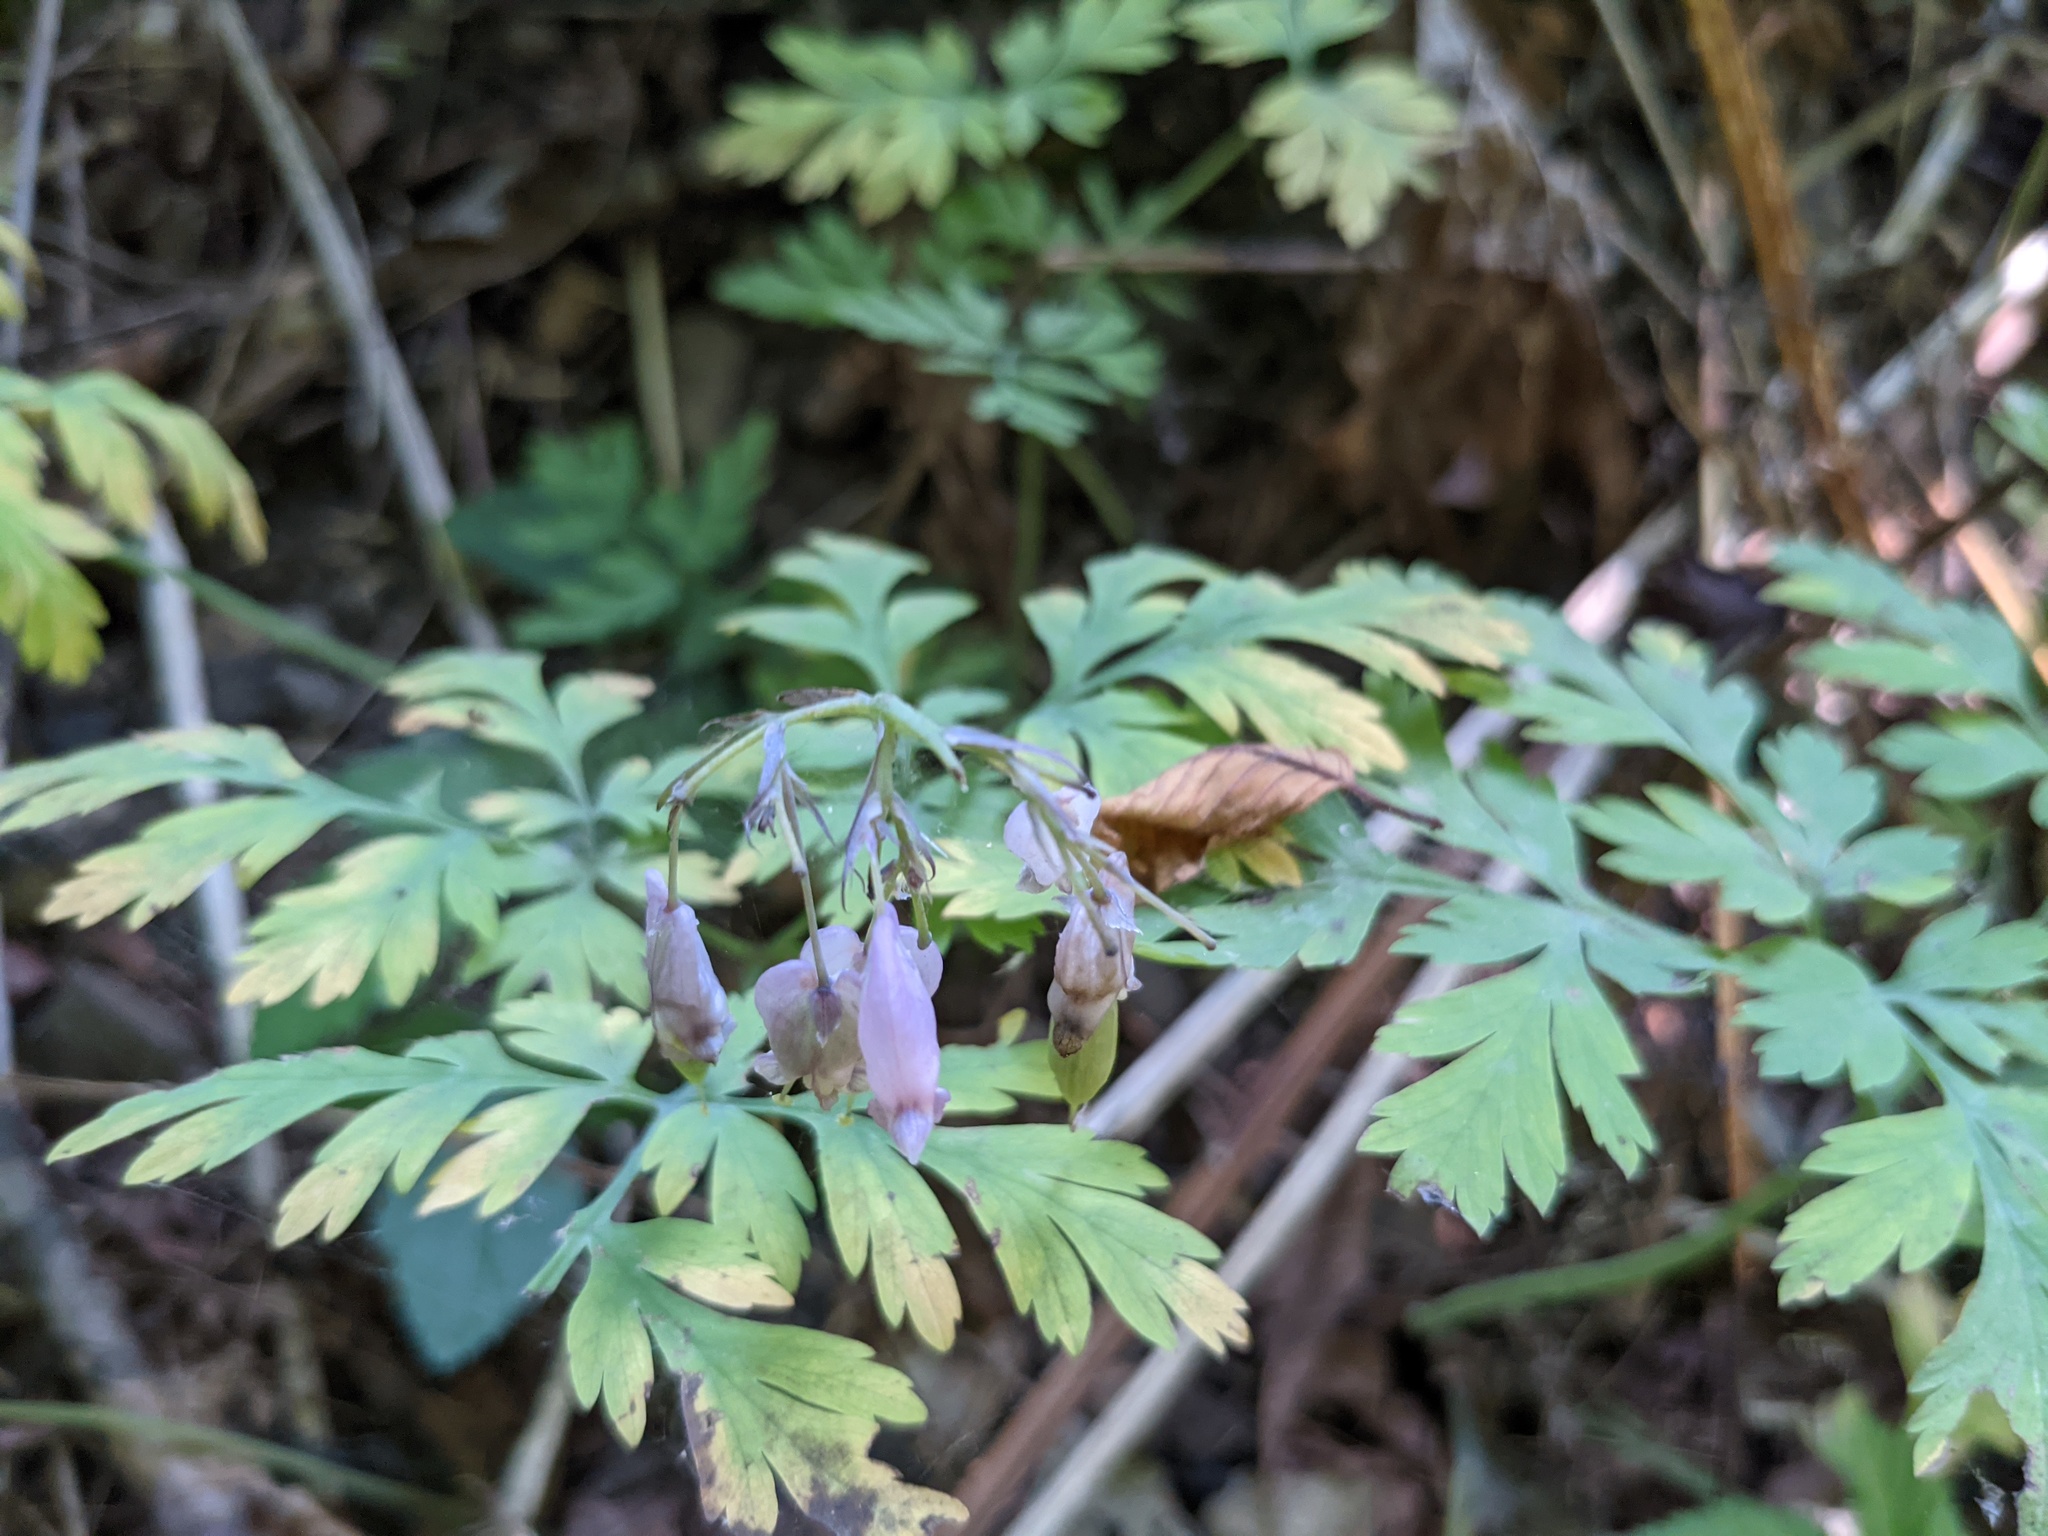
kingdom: Plantae
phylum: Tracheophyta
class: Magnoliopsida
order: Ranunculales
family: Papaveraceae
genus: Dicentra
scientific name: Dicentra formosa
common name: Bleeding-heart
